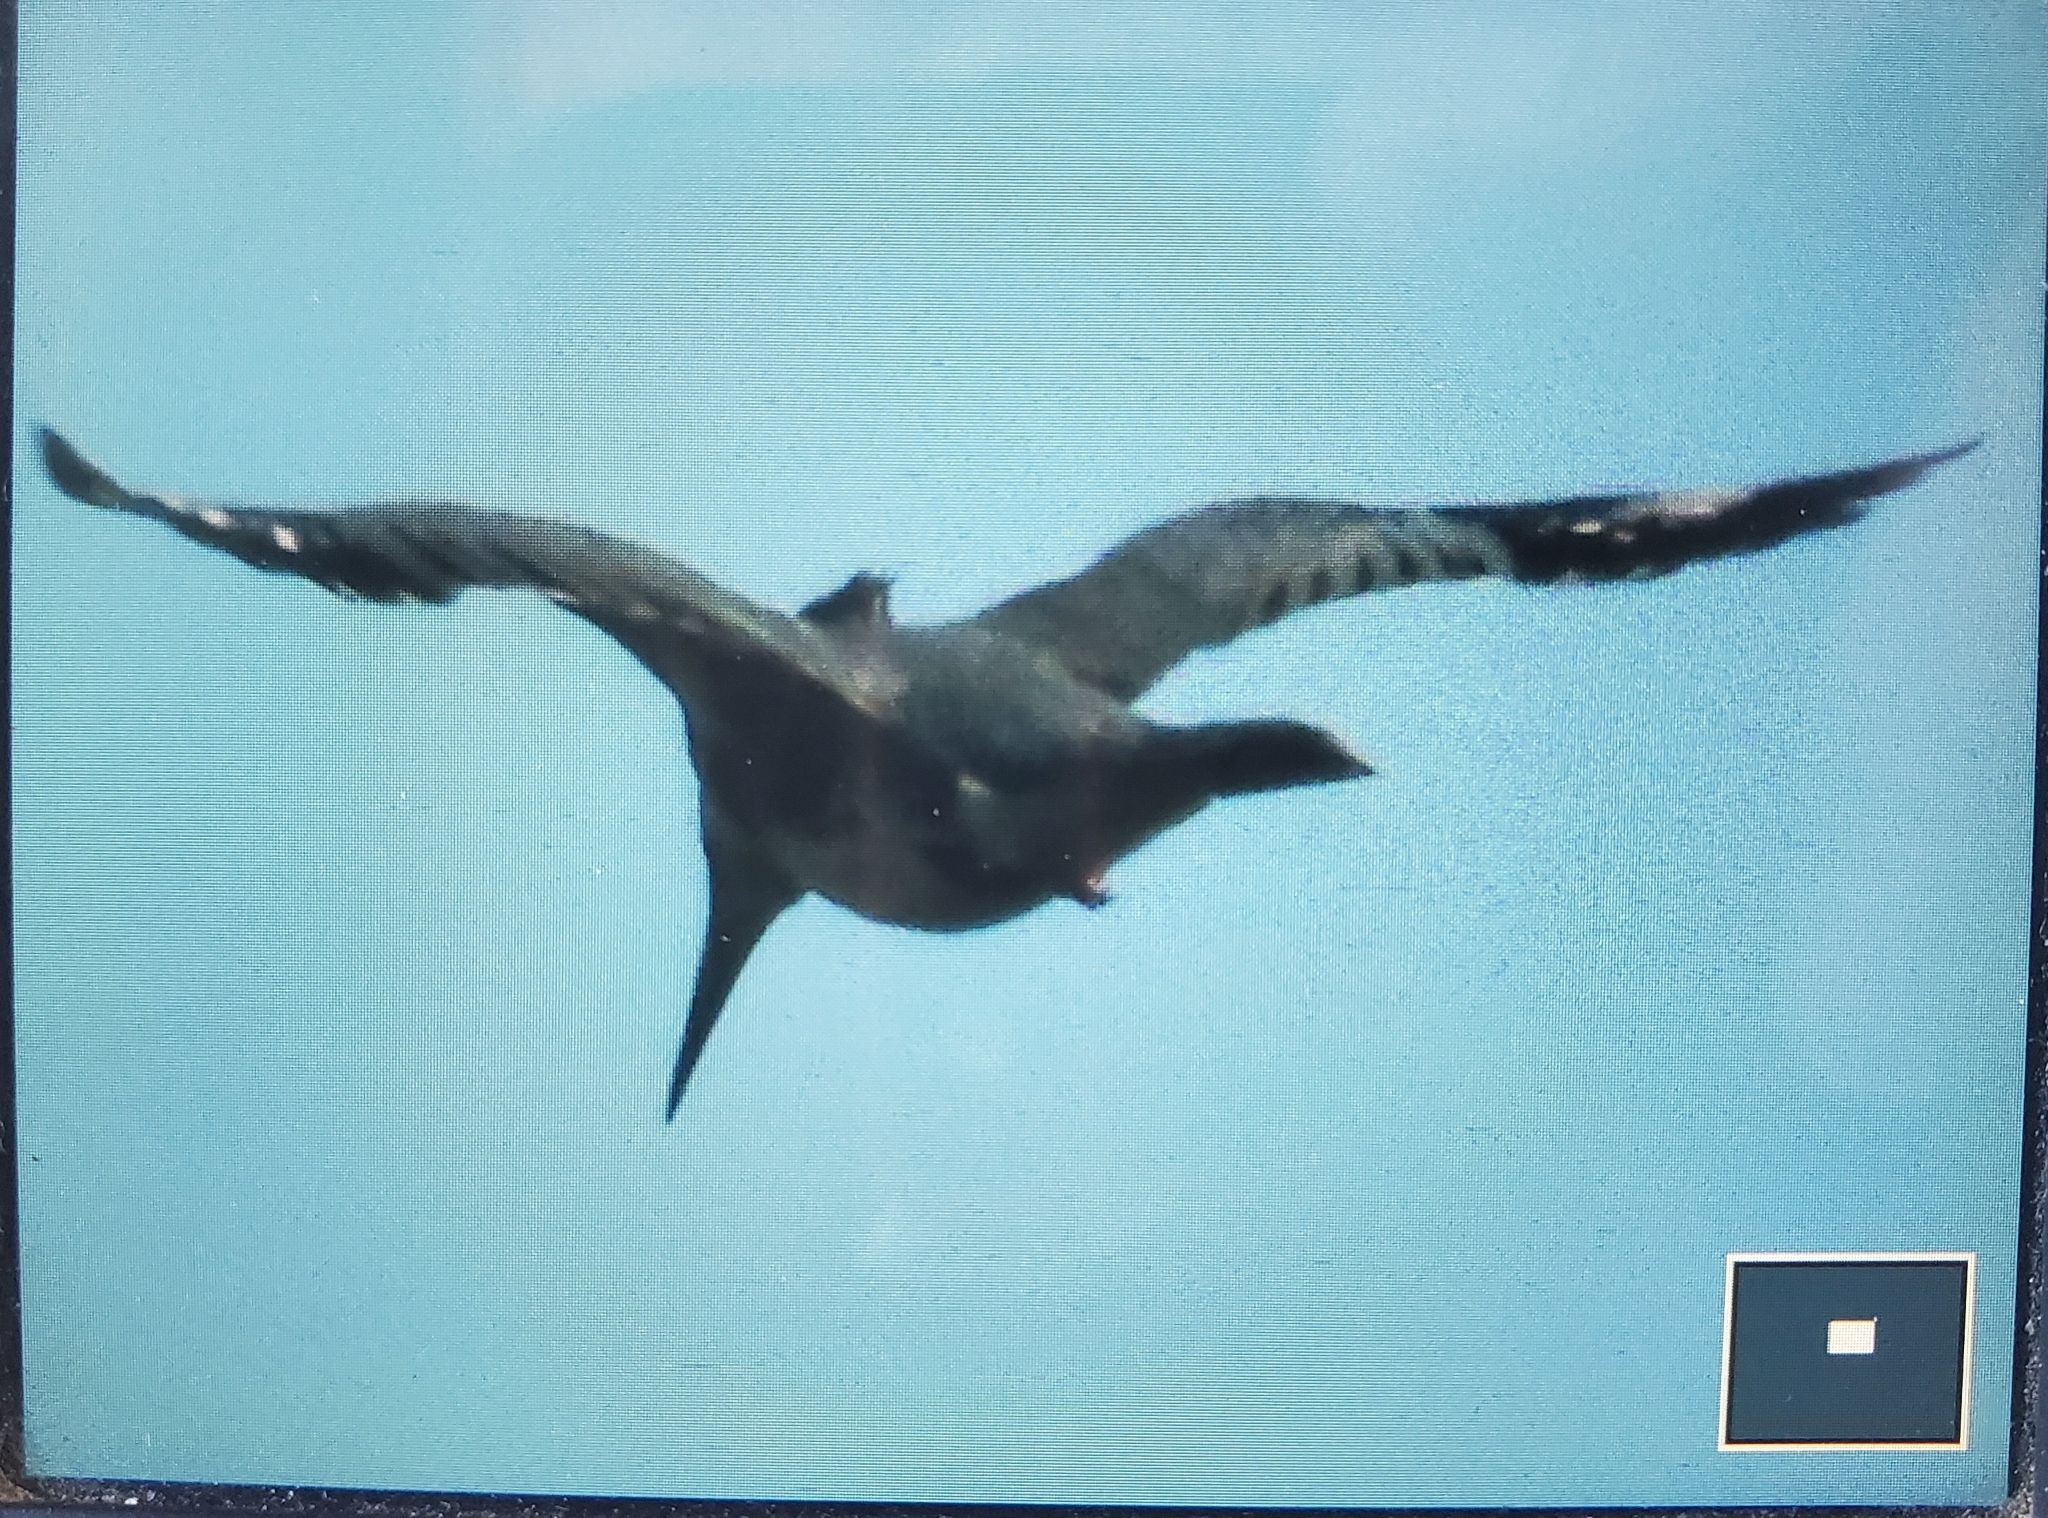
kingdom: Animalia
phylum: Chordata
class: Aves
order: Coraciiformes
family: Alcedinidae
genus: Megaceryle
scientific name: Megaceryle alcyon
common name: Belted kingfisher
